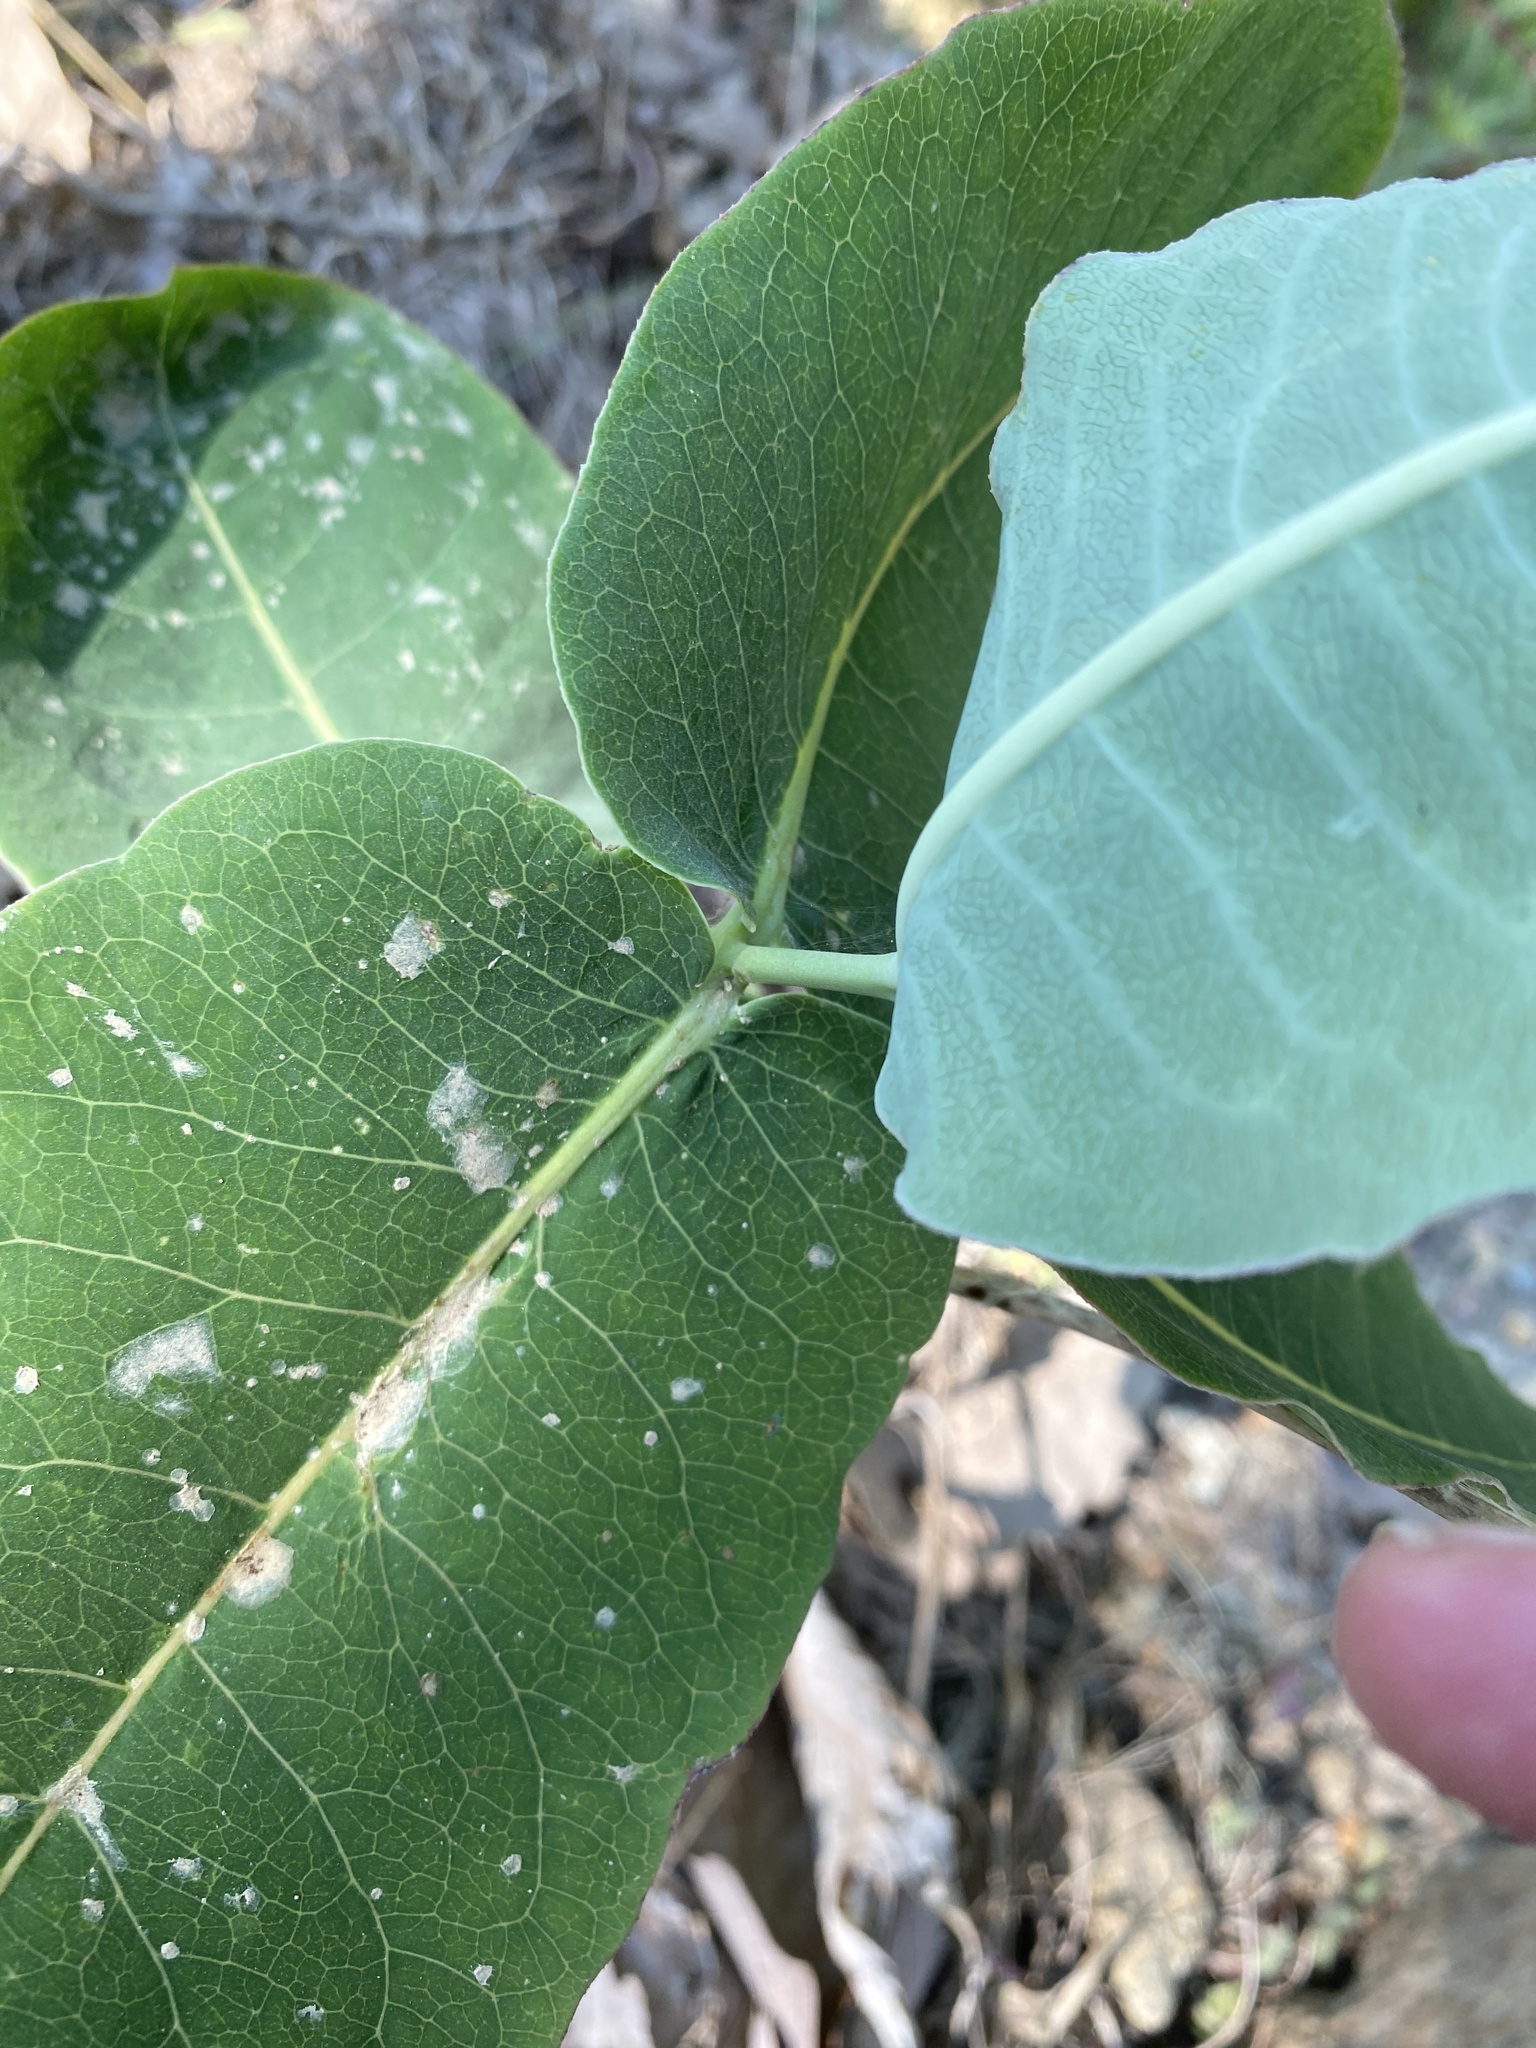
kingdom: Plantae
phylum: Tracheophyta
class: Magnoliopsida
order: Gentianales
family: Apocynaceae
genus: Asclepias
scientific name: Asclepias amplexicaulis
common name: Blunt-leaf milkweed
